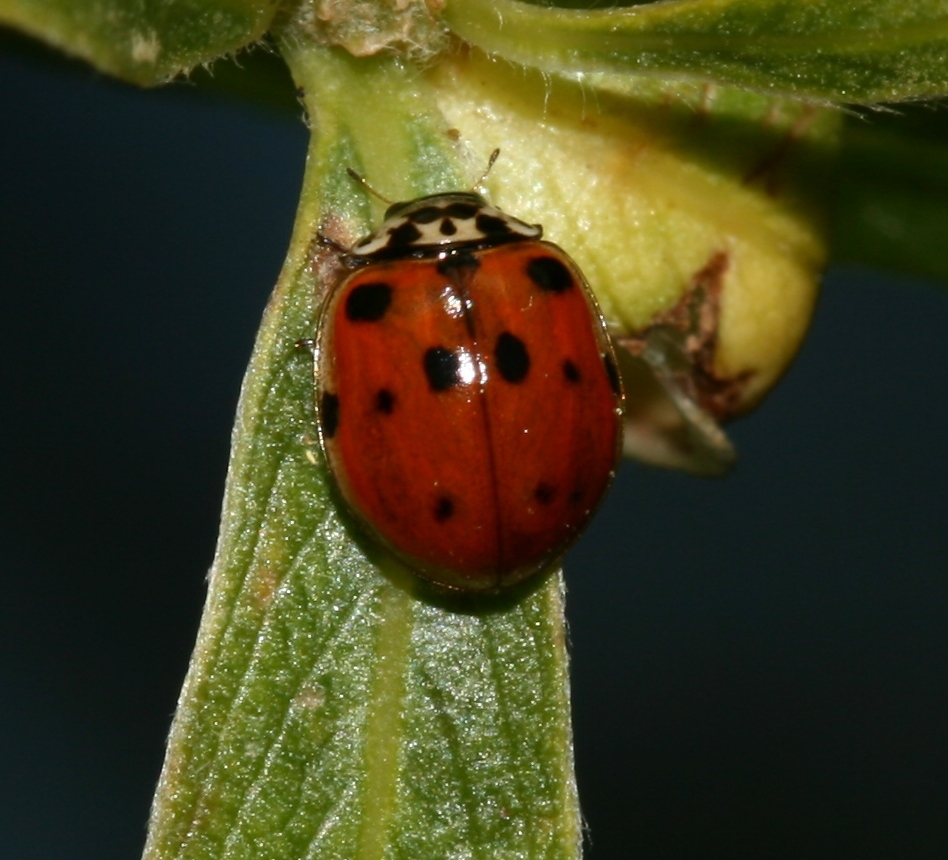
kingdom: Animalia
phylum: Arthropoda
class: Insecta
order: Coleoptera
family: Coccinellidae
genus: Adalia
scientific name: Adalia decempunctata
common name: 10-spot ladybird
